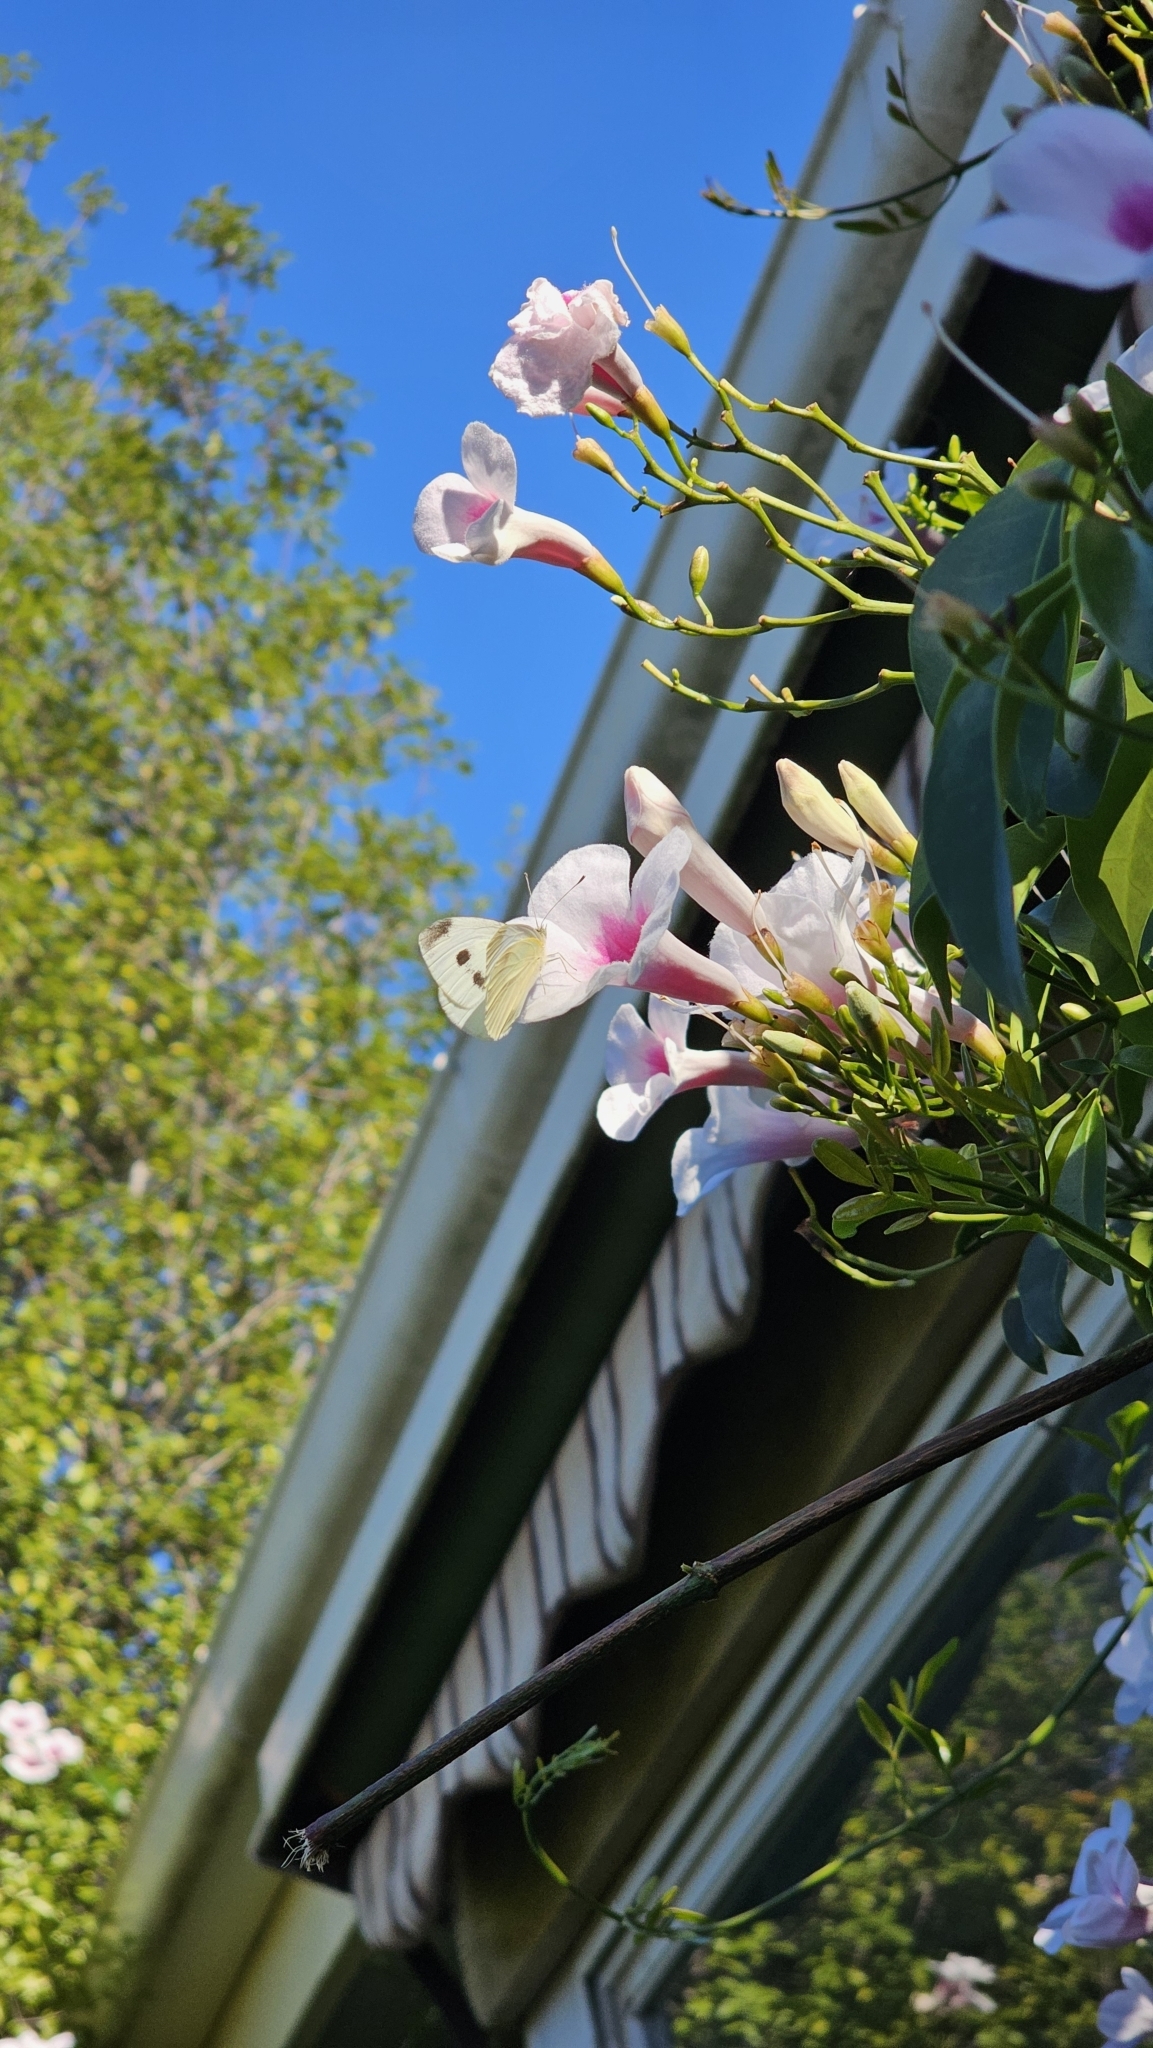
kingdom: Animalia
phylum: Arthropoda
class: Insecta
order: Lepidoptera
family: Pieridae
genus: Pieris
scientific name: Pieris rapae
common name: Small white
